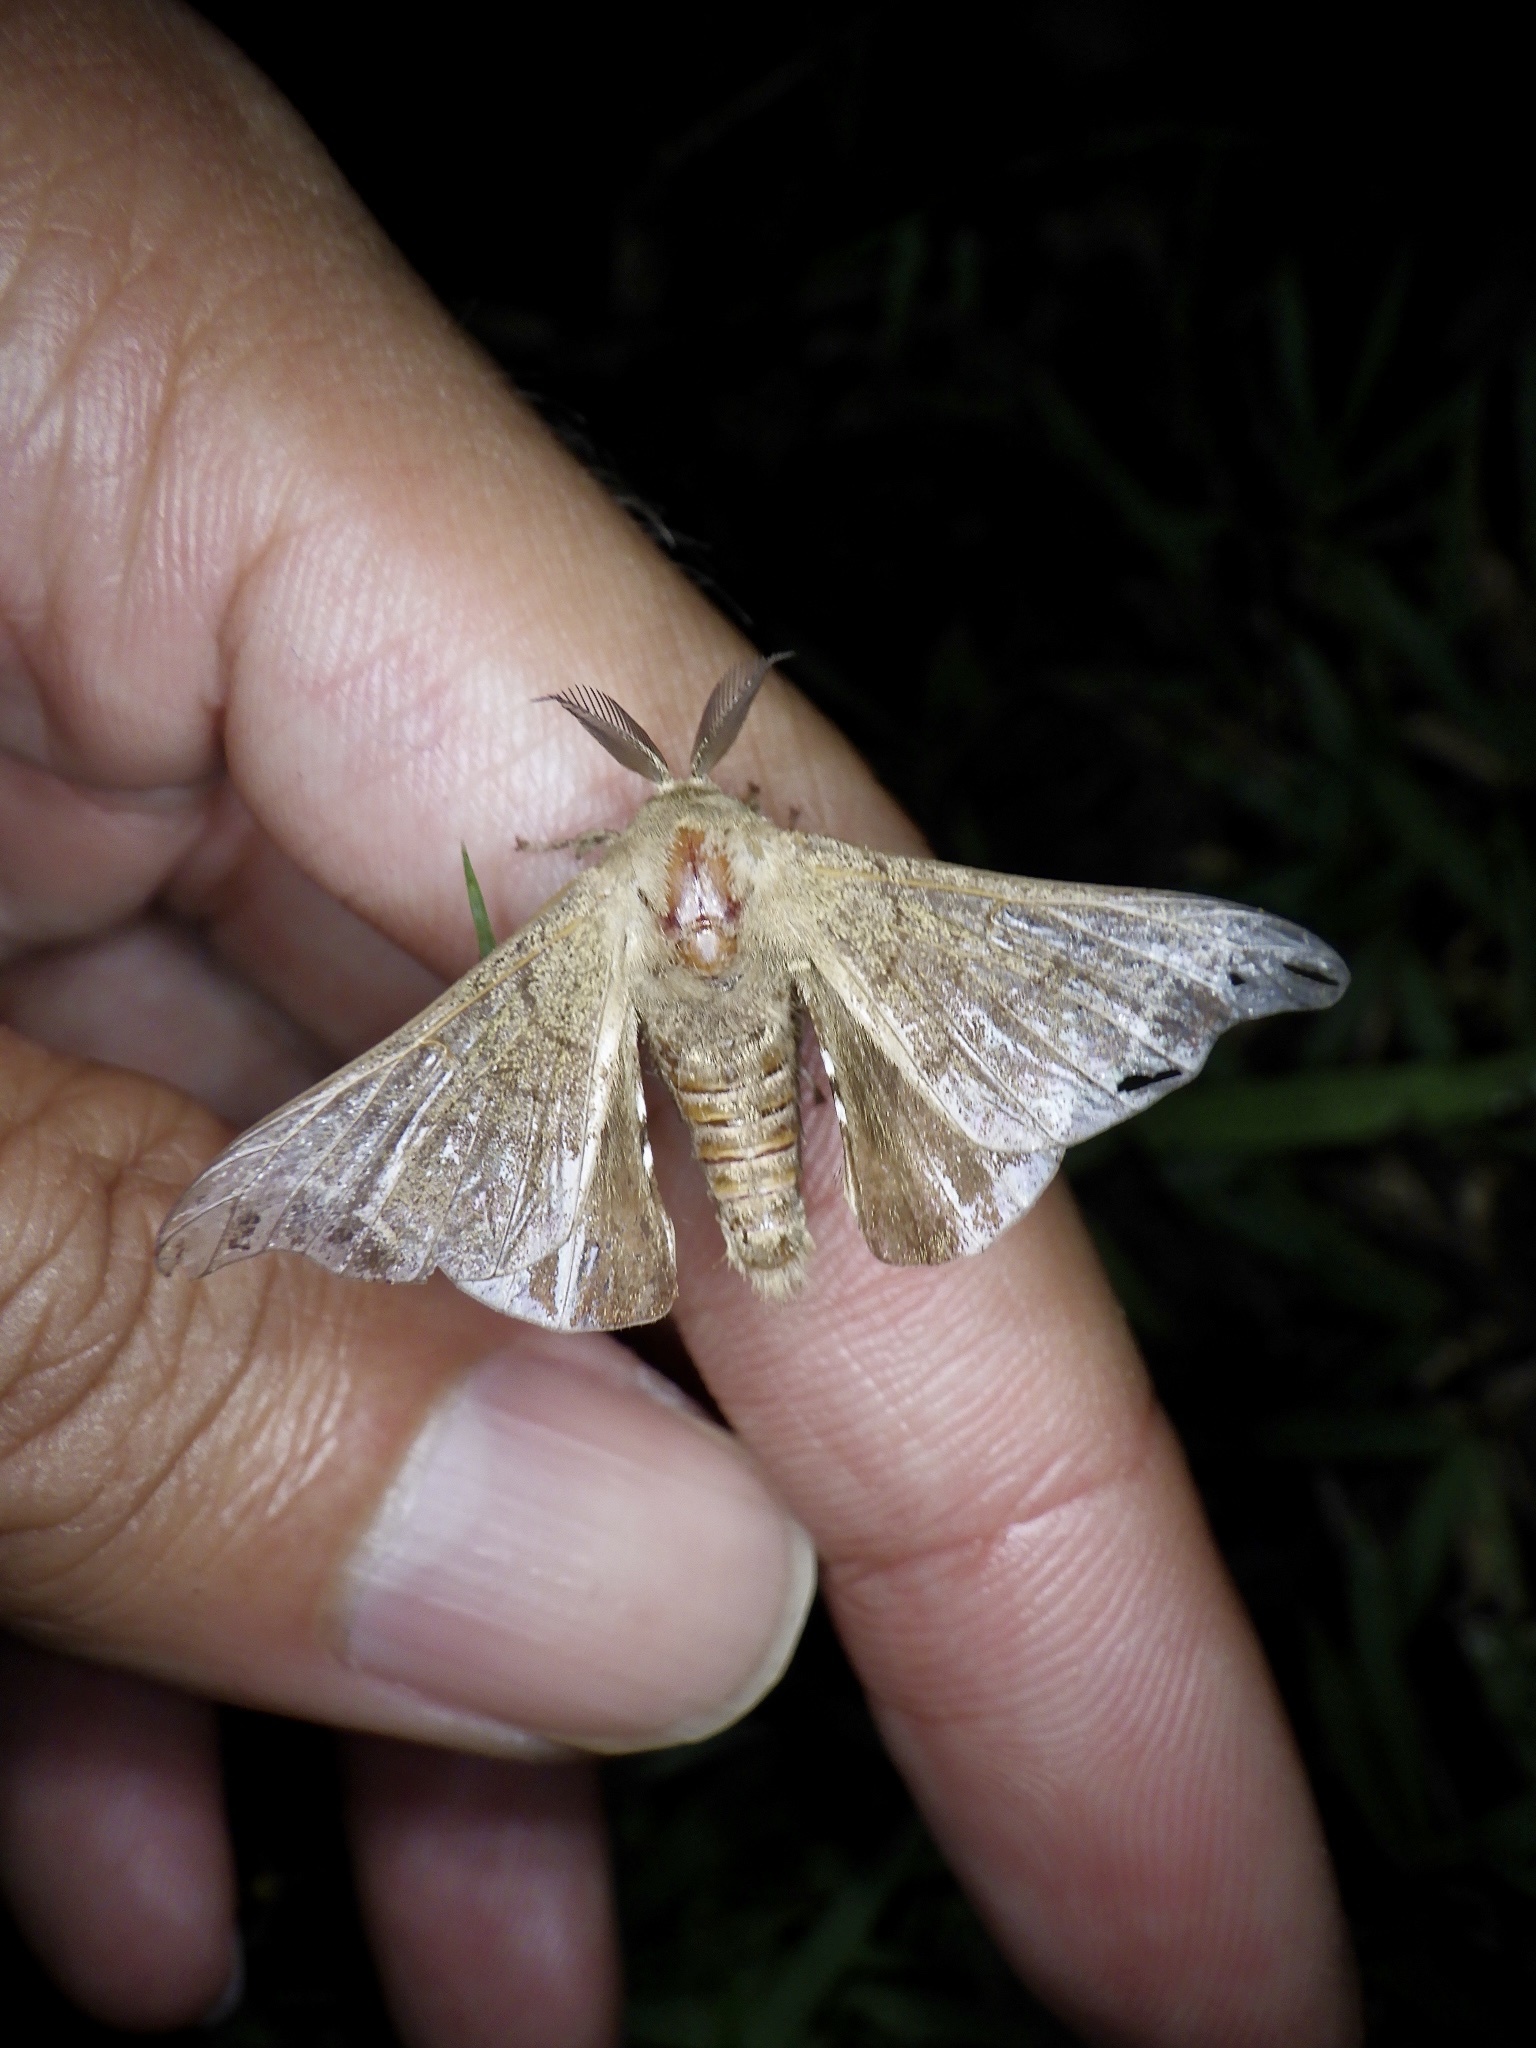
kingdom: Animalia
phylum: Arthropoda
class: Insecta
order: Lepidoptera
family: Bombycidae
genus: Bombyx
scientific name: Bombyx mandarina
